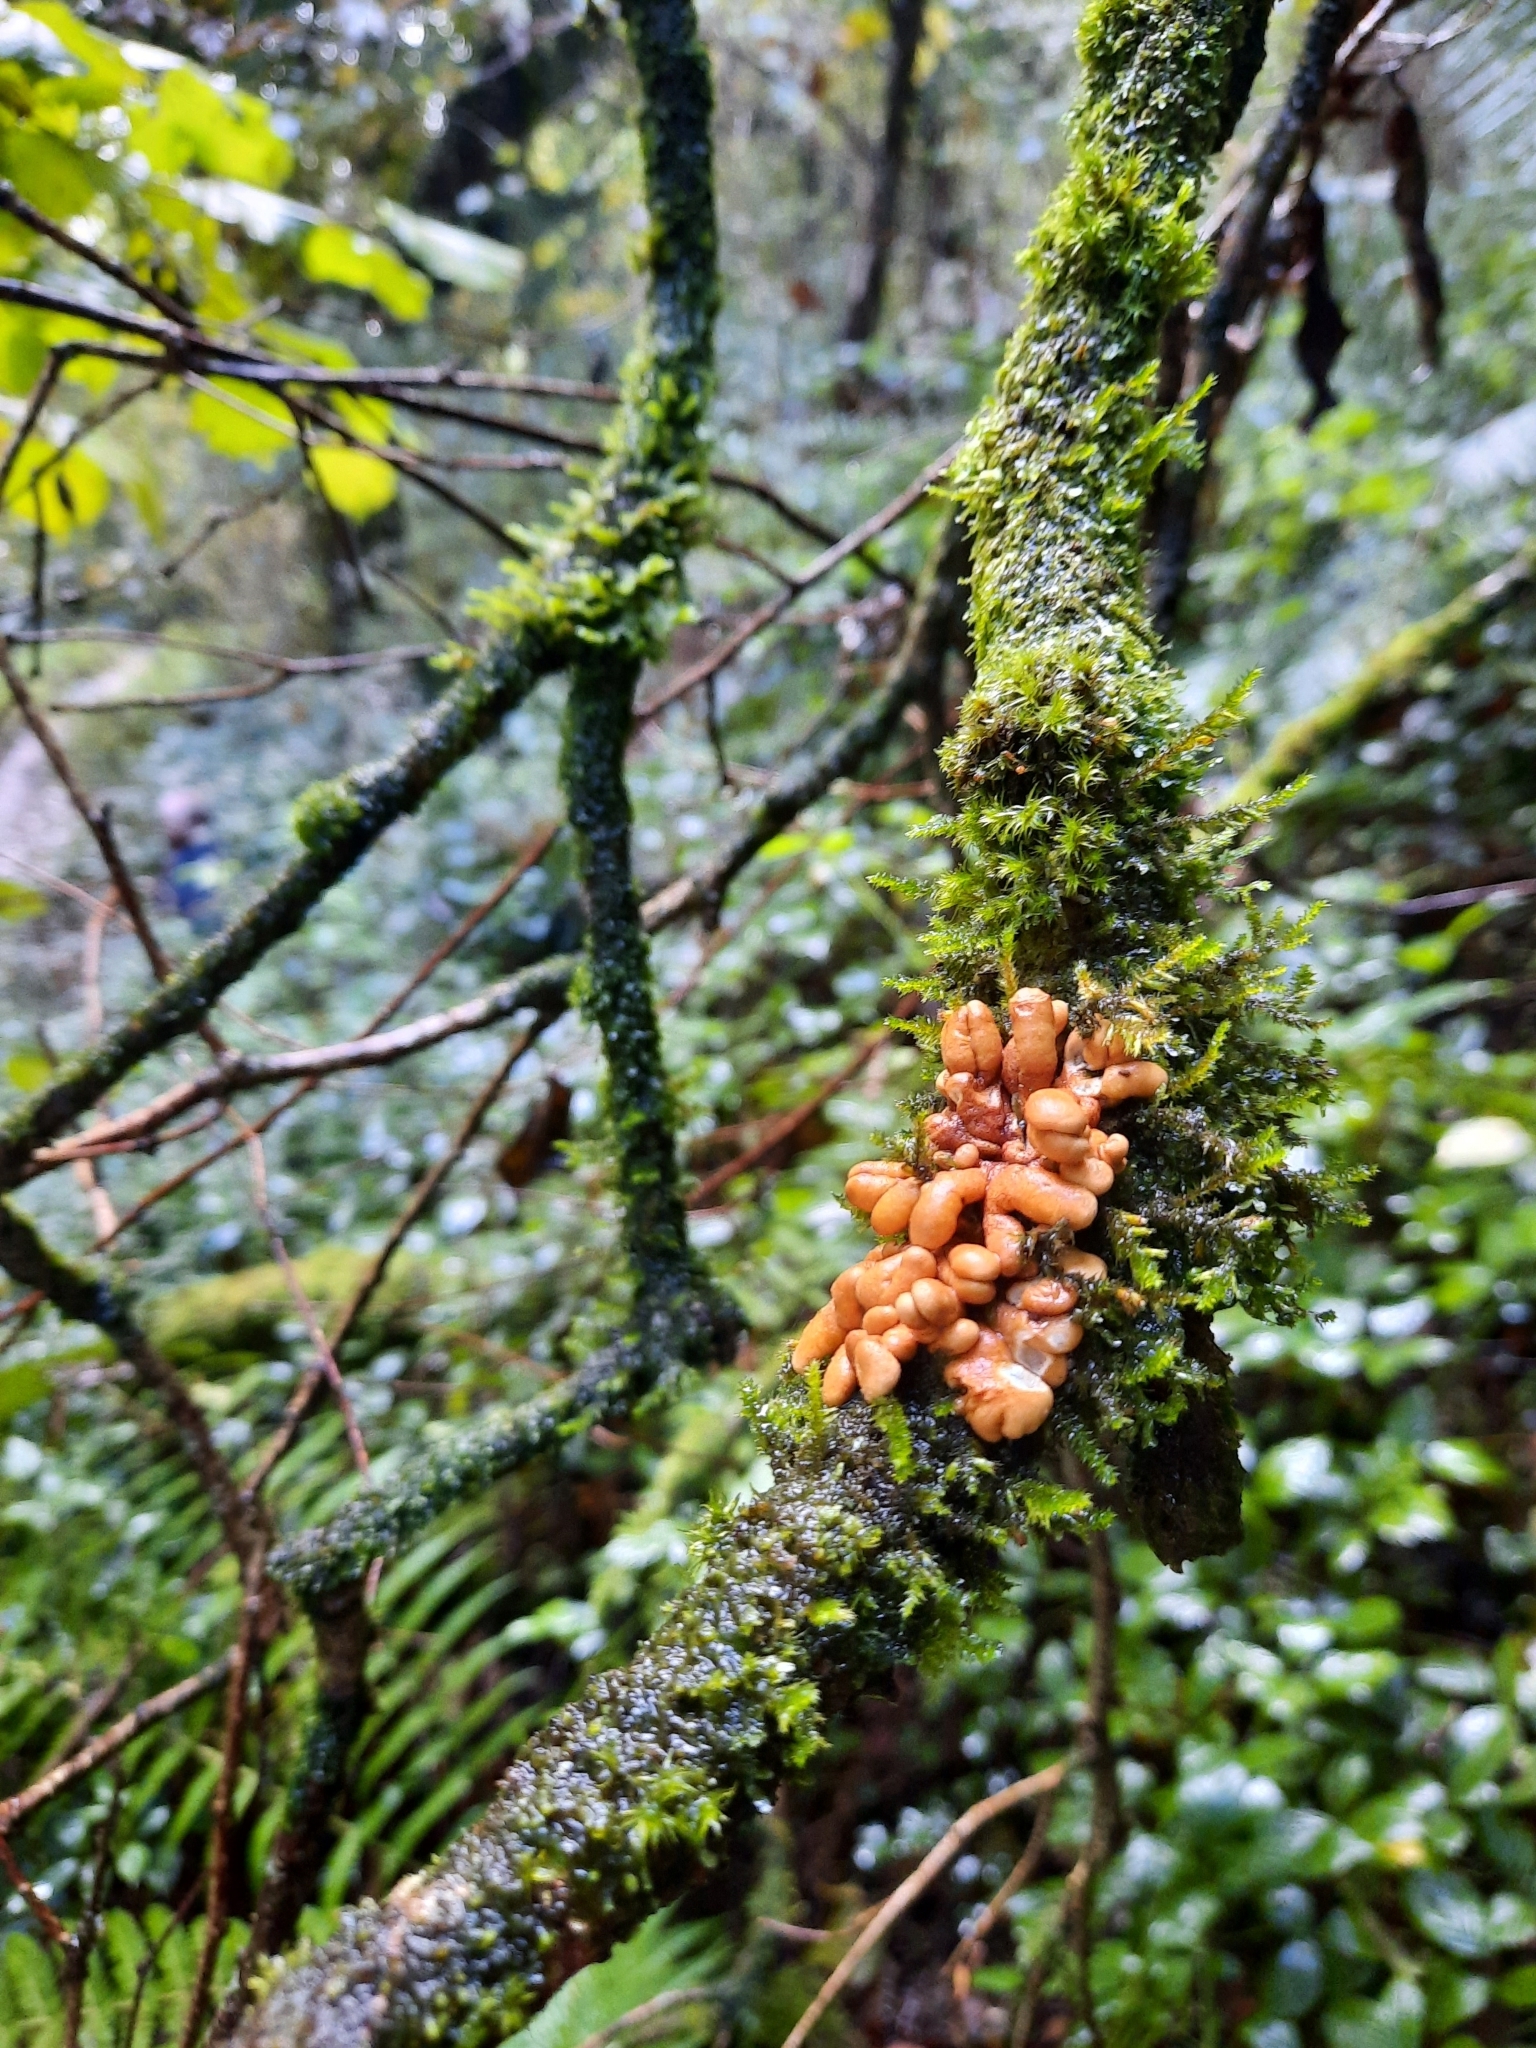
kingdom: Fungi
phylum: Ascomycota
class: Sordariomycetes
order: Hypocreales
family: Hypocreaceae
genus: Hypocreopsis
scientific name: Hypocreopsis rhododendri
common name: Hazel gloves
